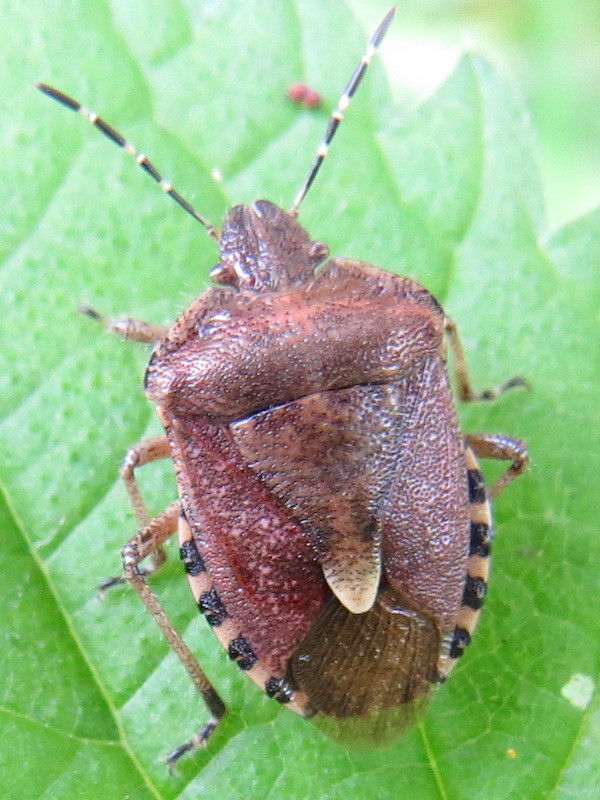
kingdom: Animalia
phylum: Arthropoda
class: Insecta
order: Hemiptera
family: Pentatomidae
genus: Dolycoris
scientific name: Dolycoris baccarum
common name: Sloe bug
